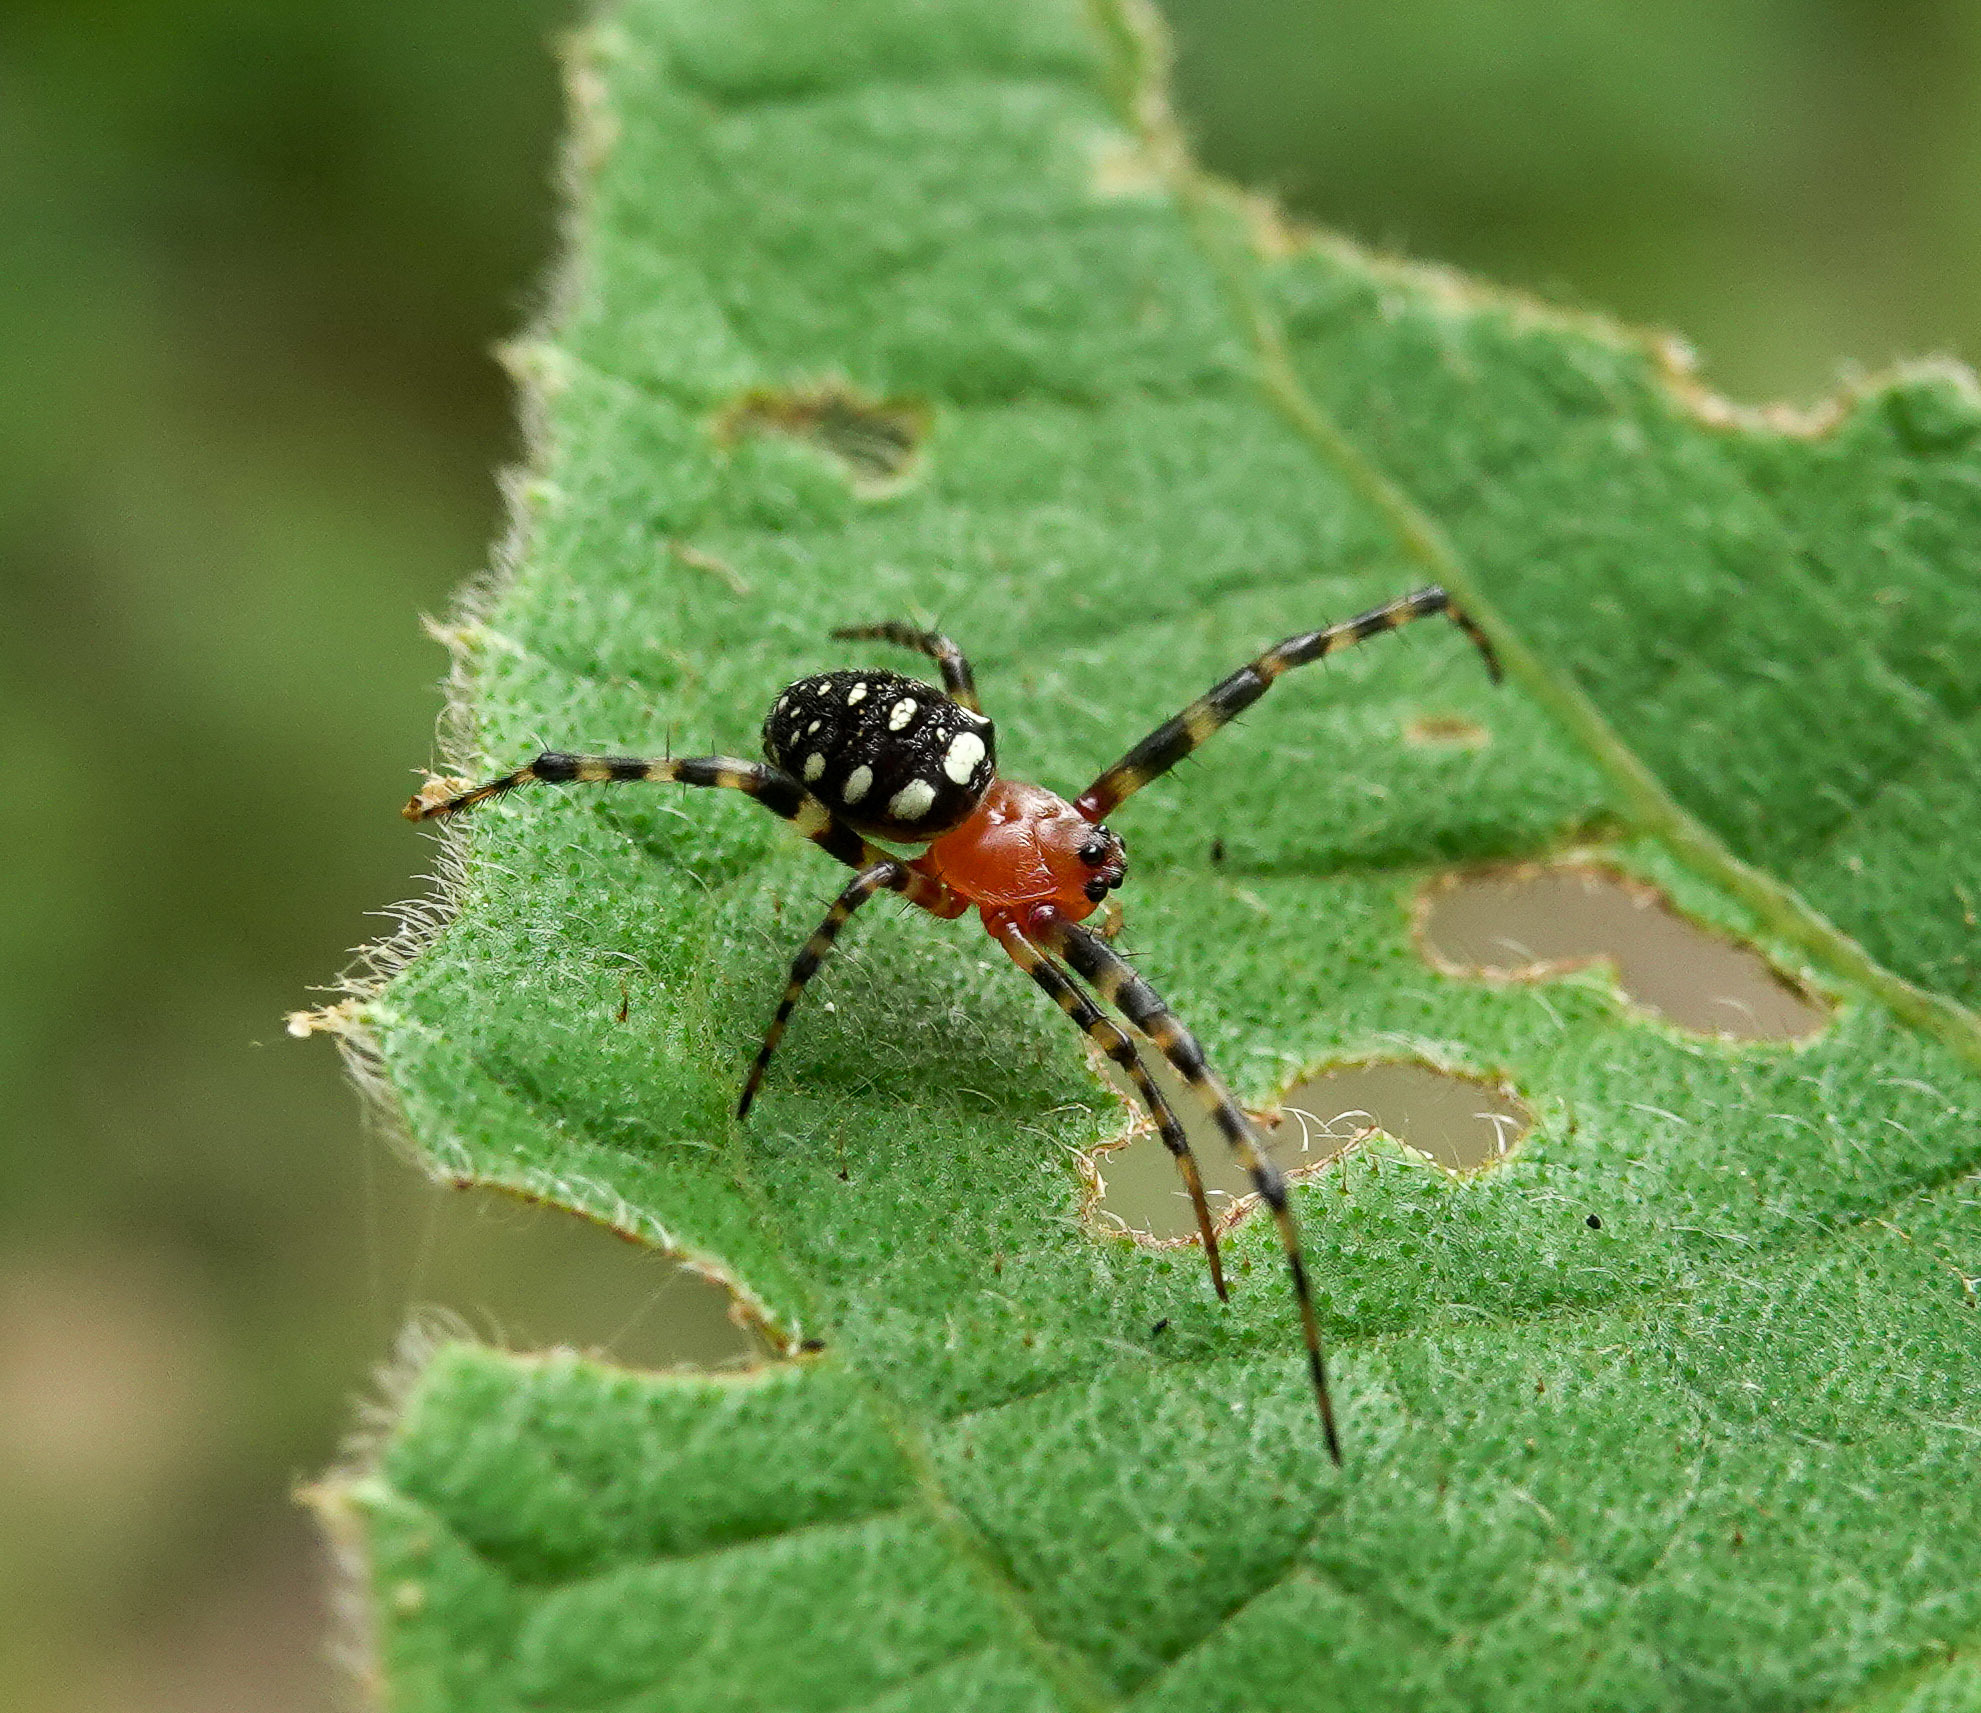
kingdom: Animalia
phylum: Arthropoda
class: Arachnida
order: Araneae
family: Araneidae
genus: Gea
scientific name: Gea subarmata
